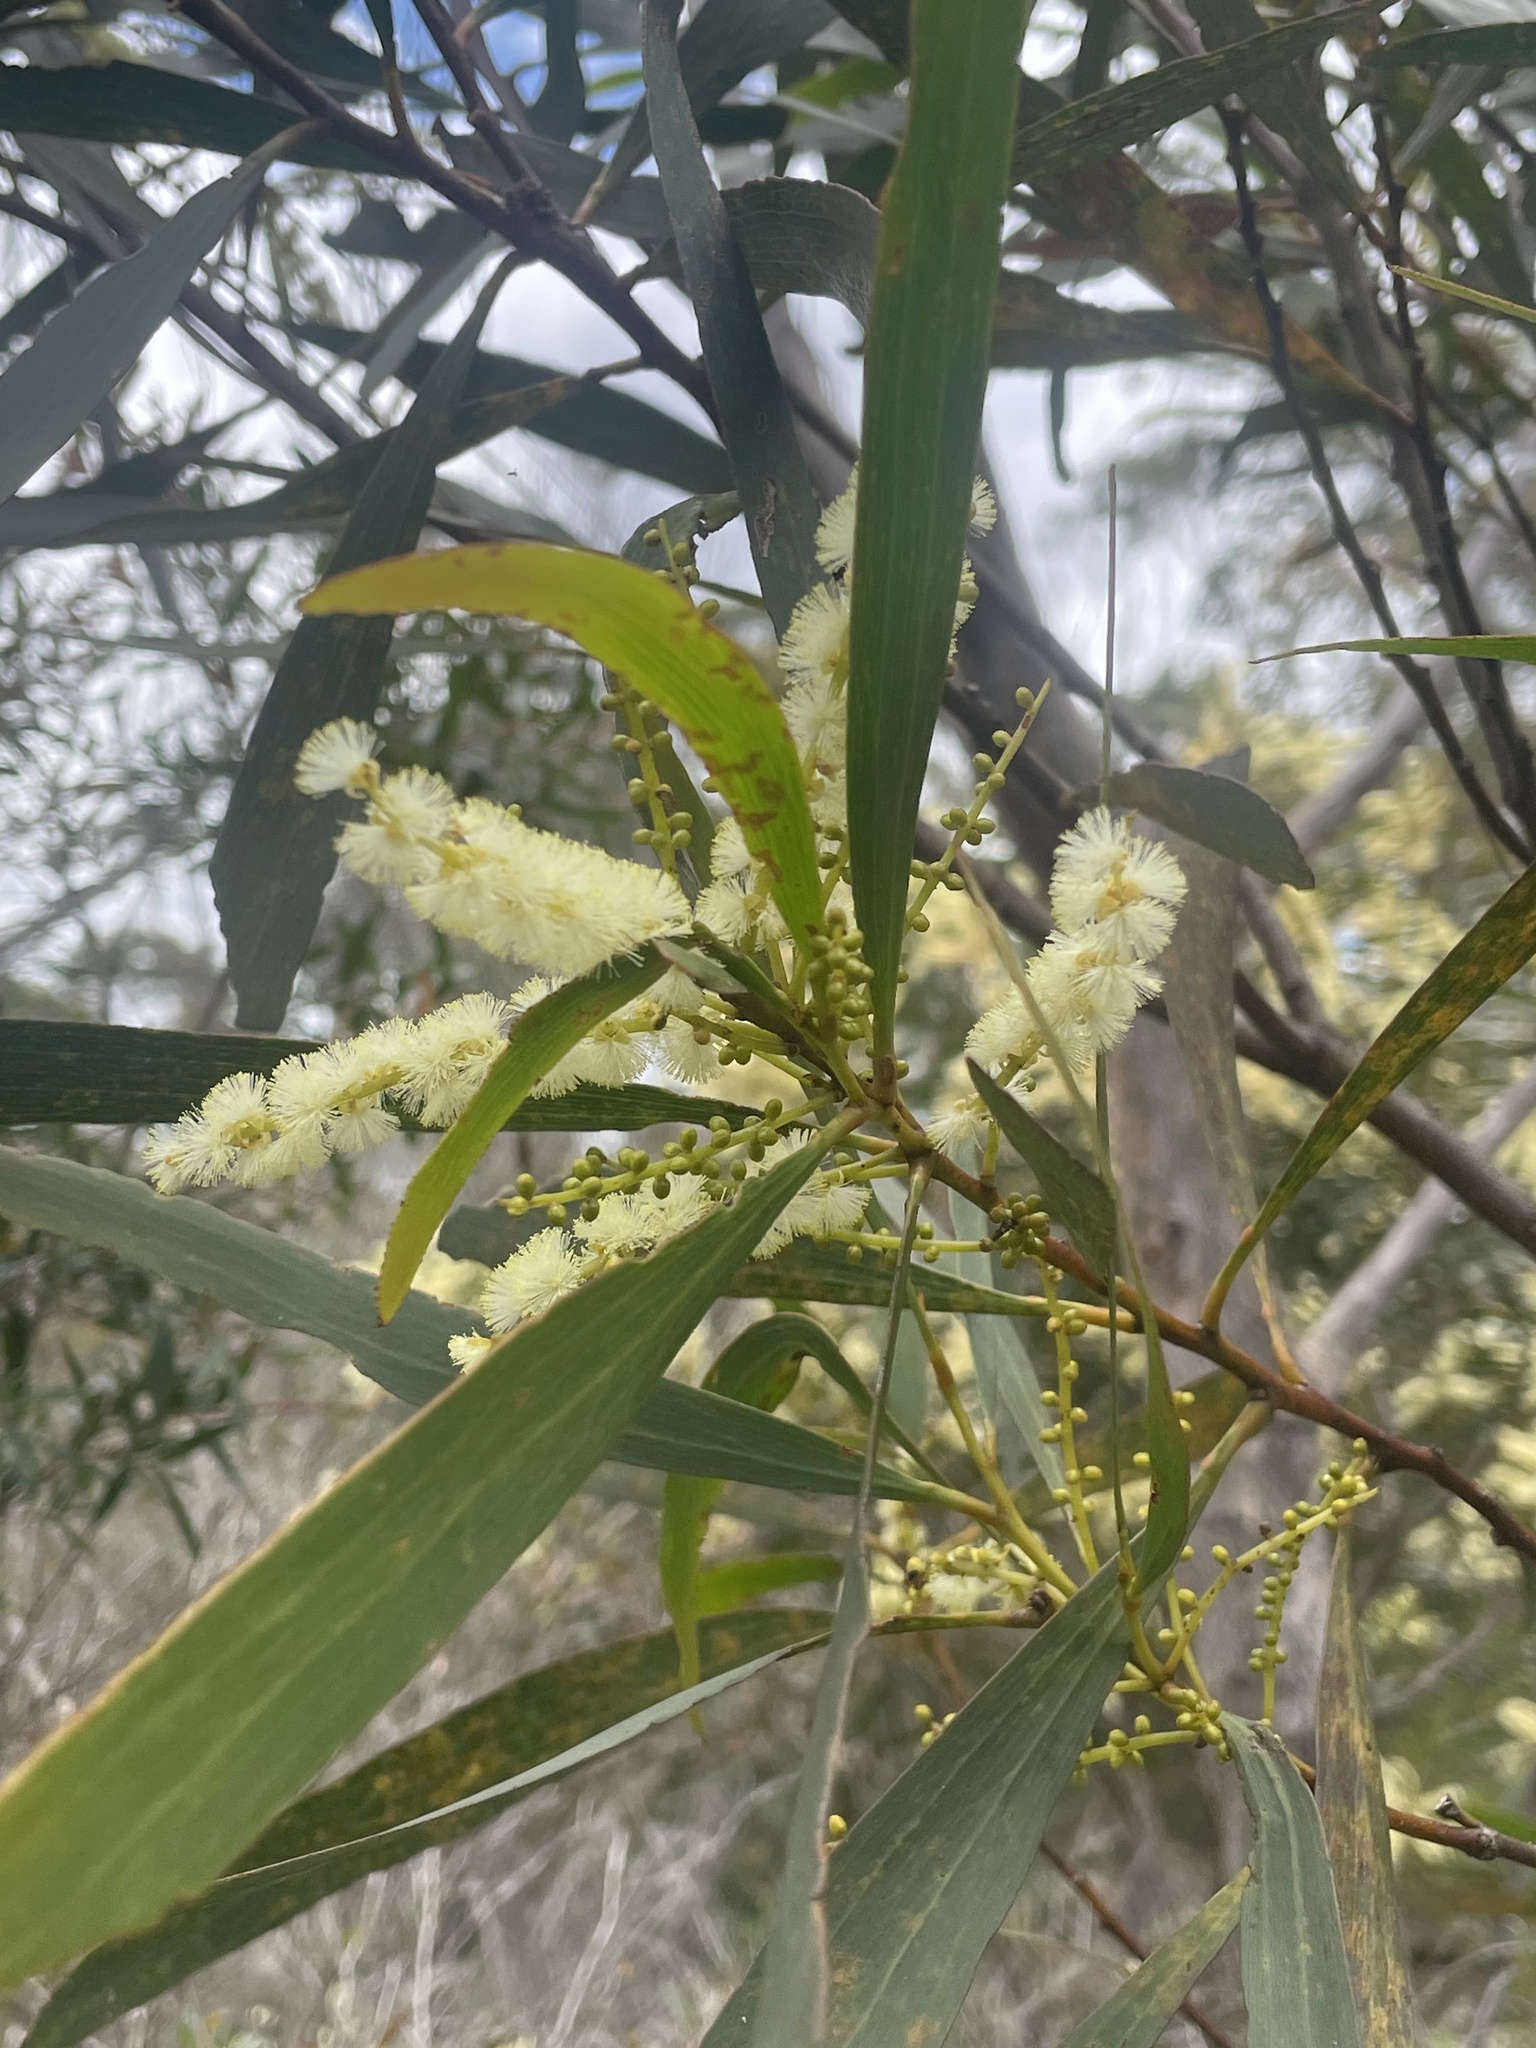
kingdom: Plantae
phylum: Tracheophyta
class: Magnoliopsida
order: Fabales
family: Fabaceae
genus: Acacia
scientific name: Acacia obtusifolia
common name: Stiff-leaf wattle
